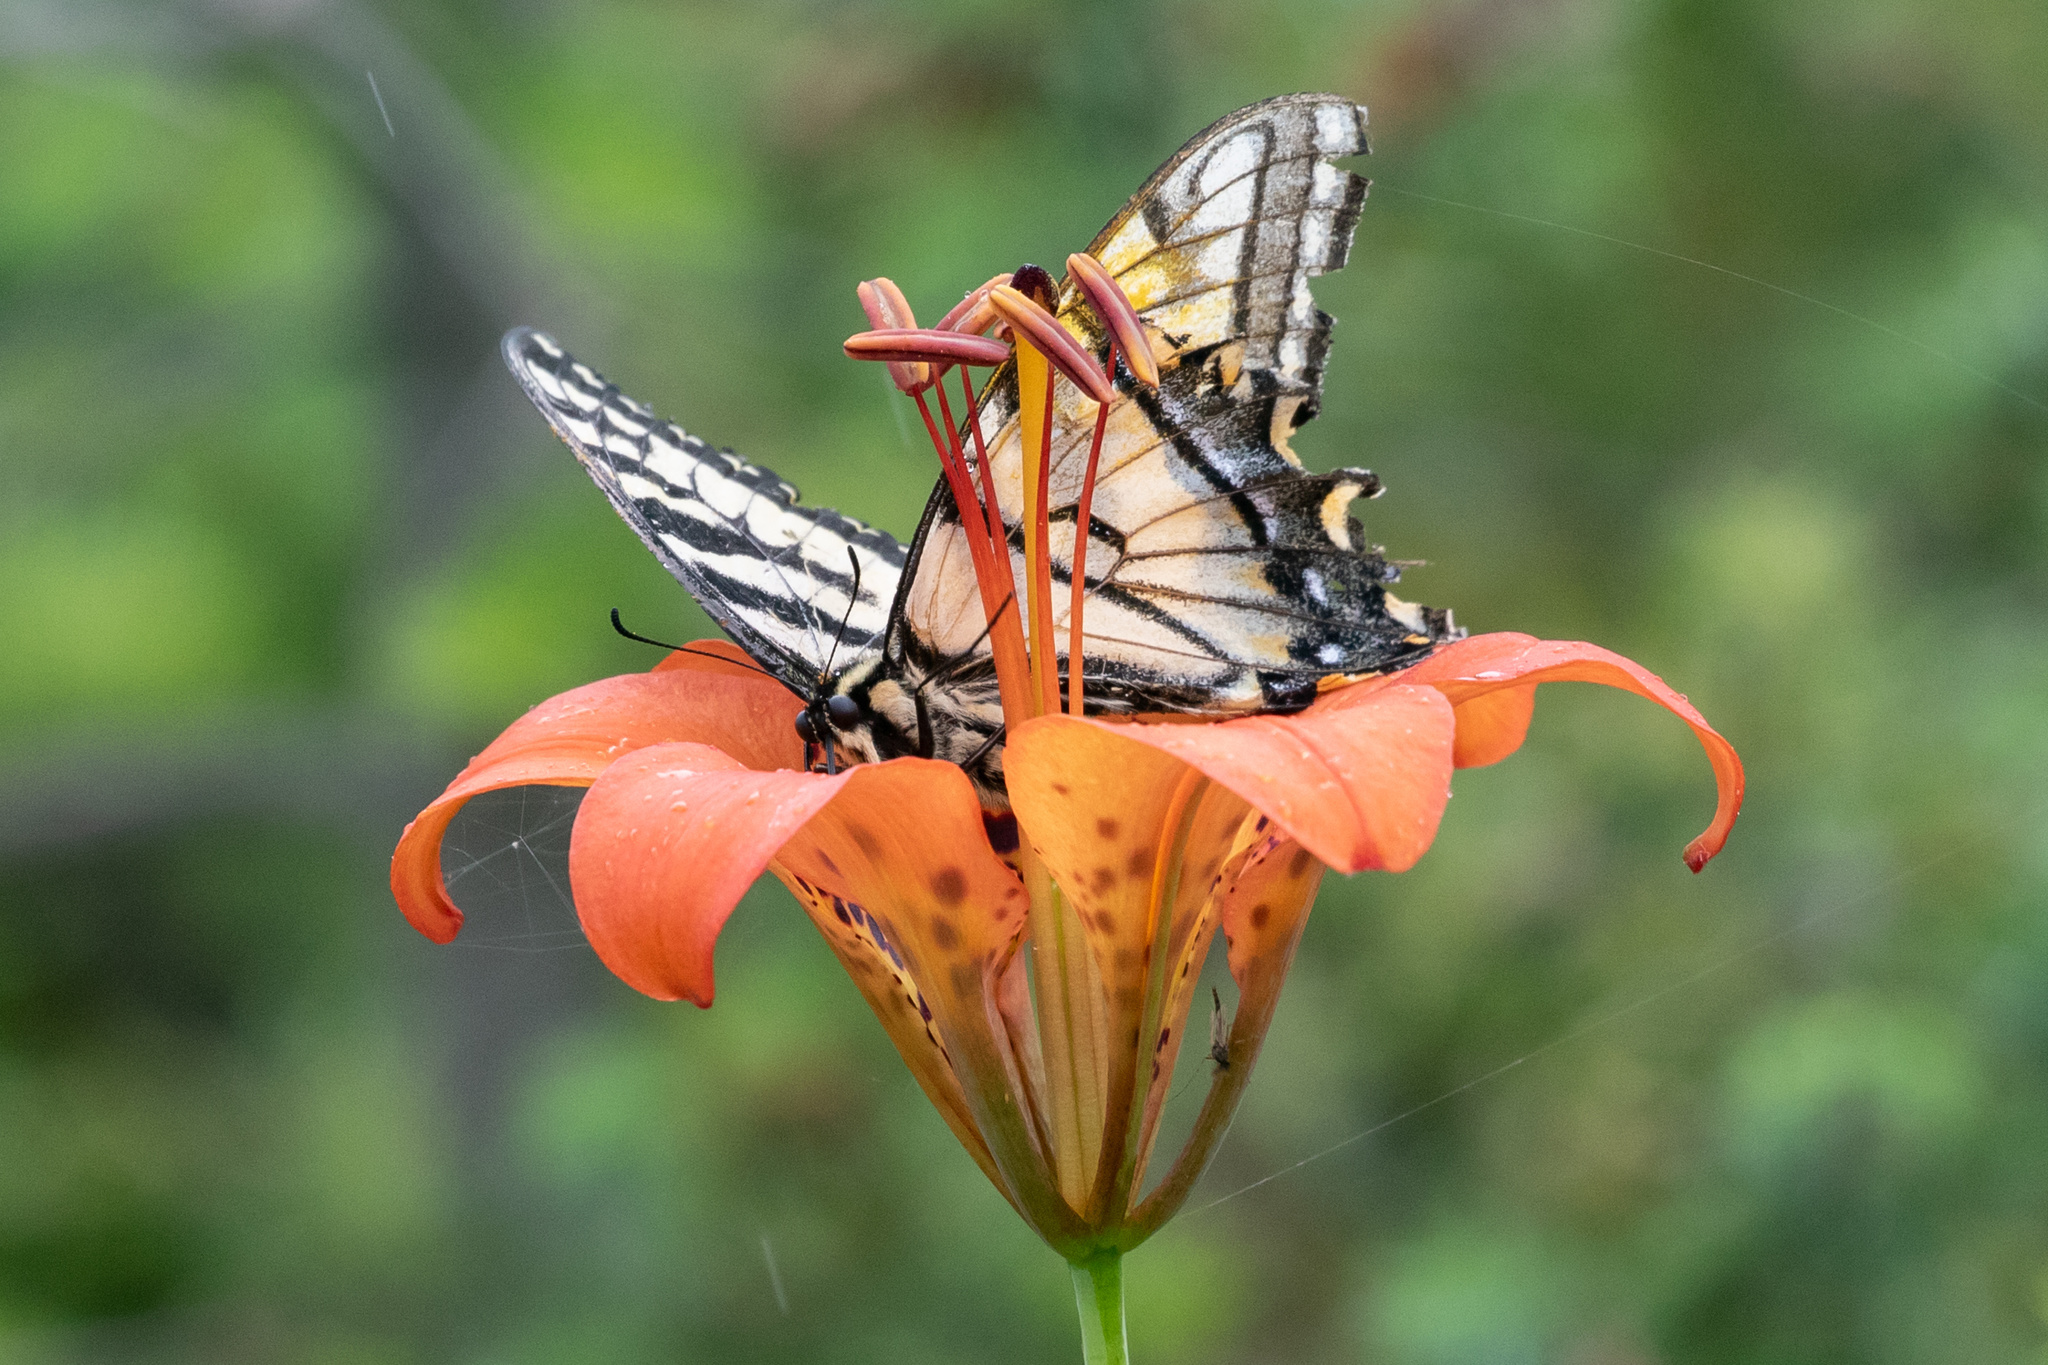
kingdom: Animalia
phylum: Arthropoda
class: Insecta
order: Lepidoptera
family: Papilionidae
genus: Papilio
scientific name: Papilio canadensis
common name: Canadian tiger swallowtail
